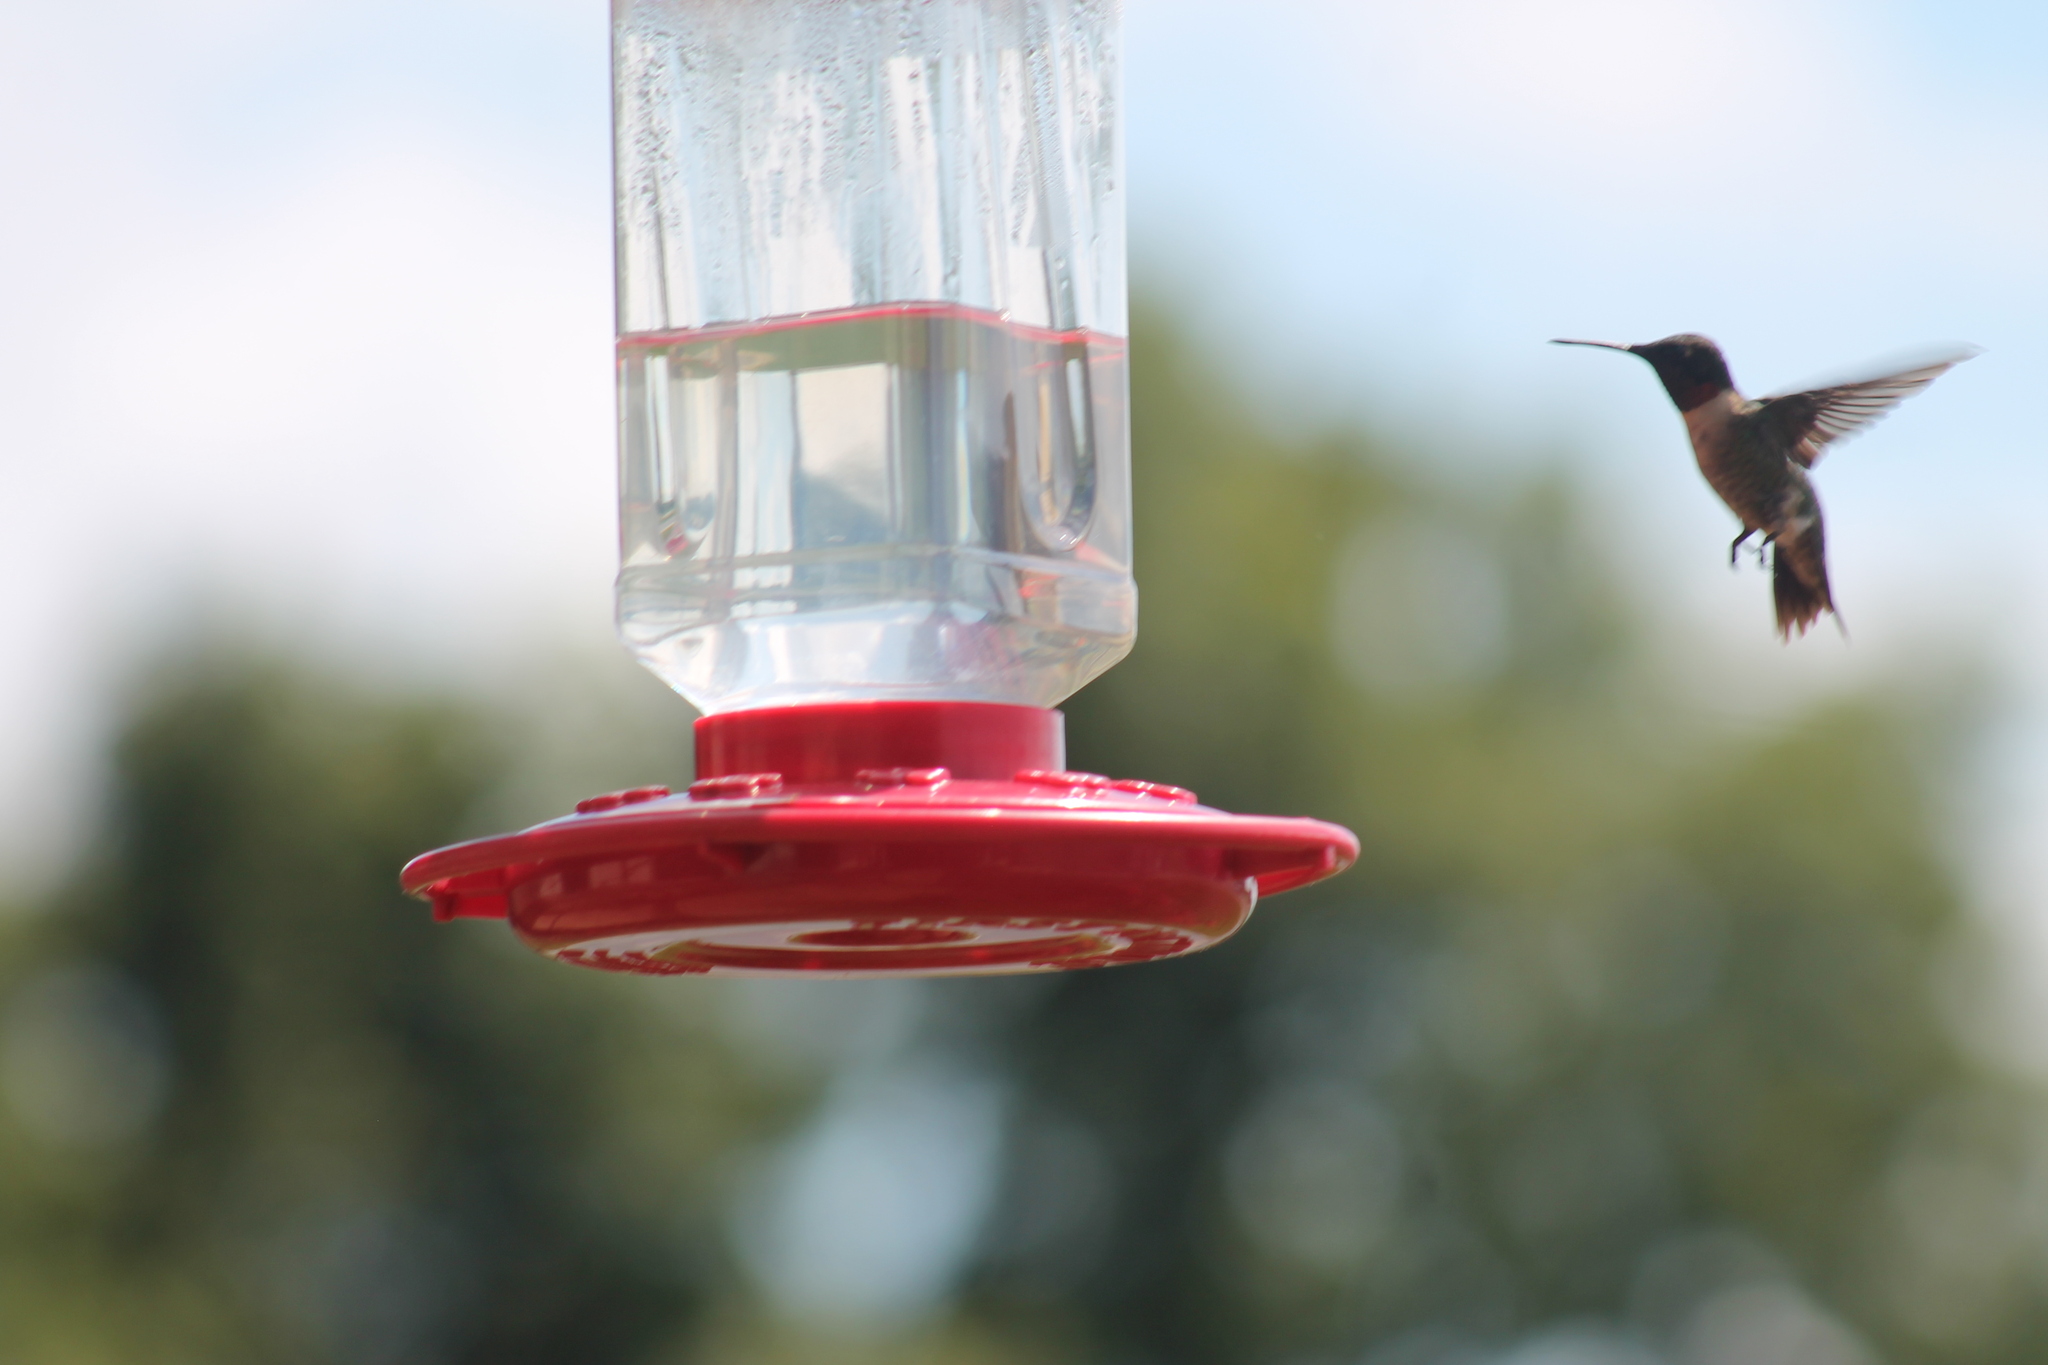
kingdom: Animalia
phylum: Chordata
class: Aves
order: Apodiformes
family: Trochilidae
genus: Archilochus
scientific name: Archilochus colubris
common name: Ruby-throated hummingbird
